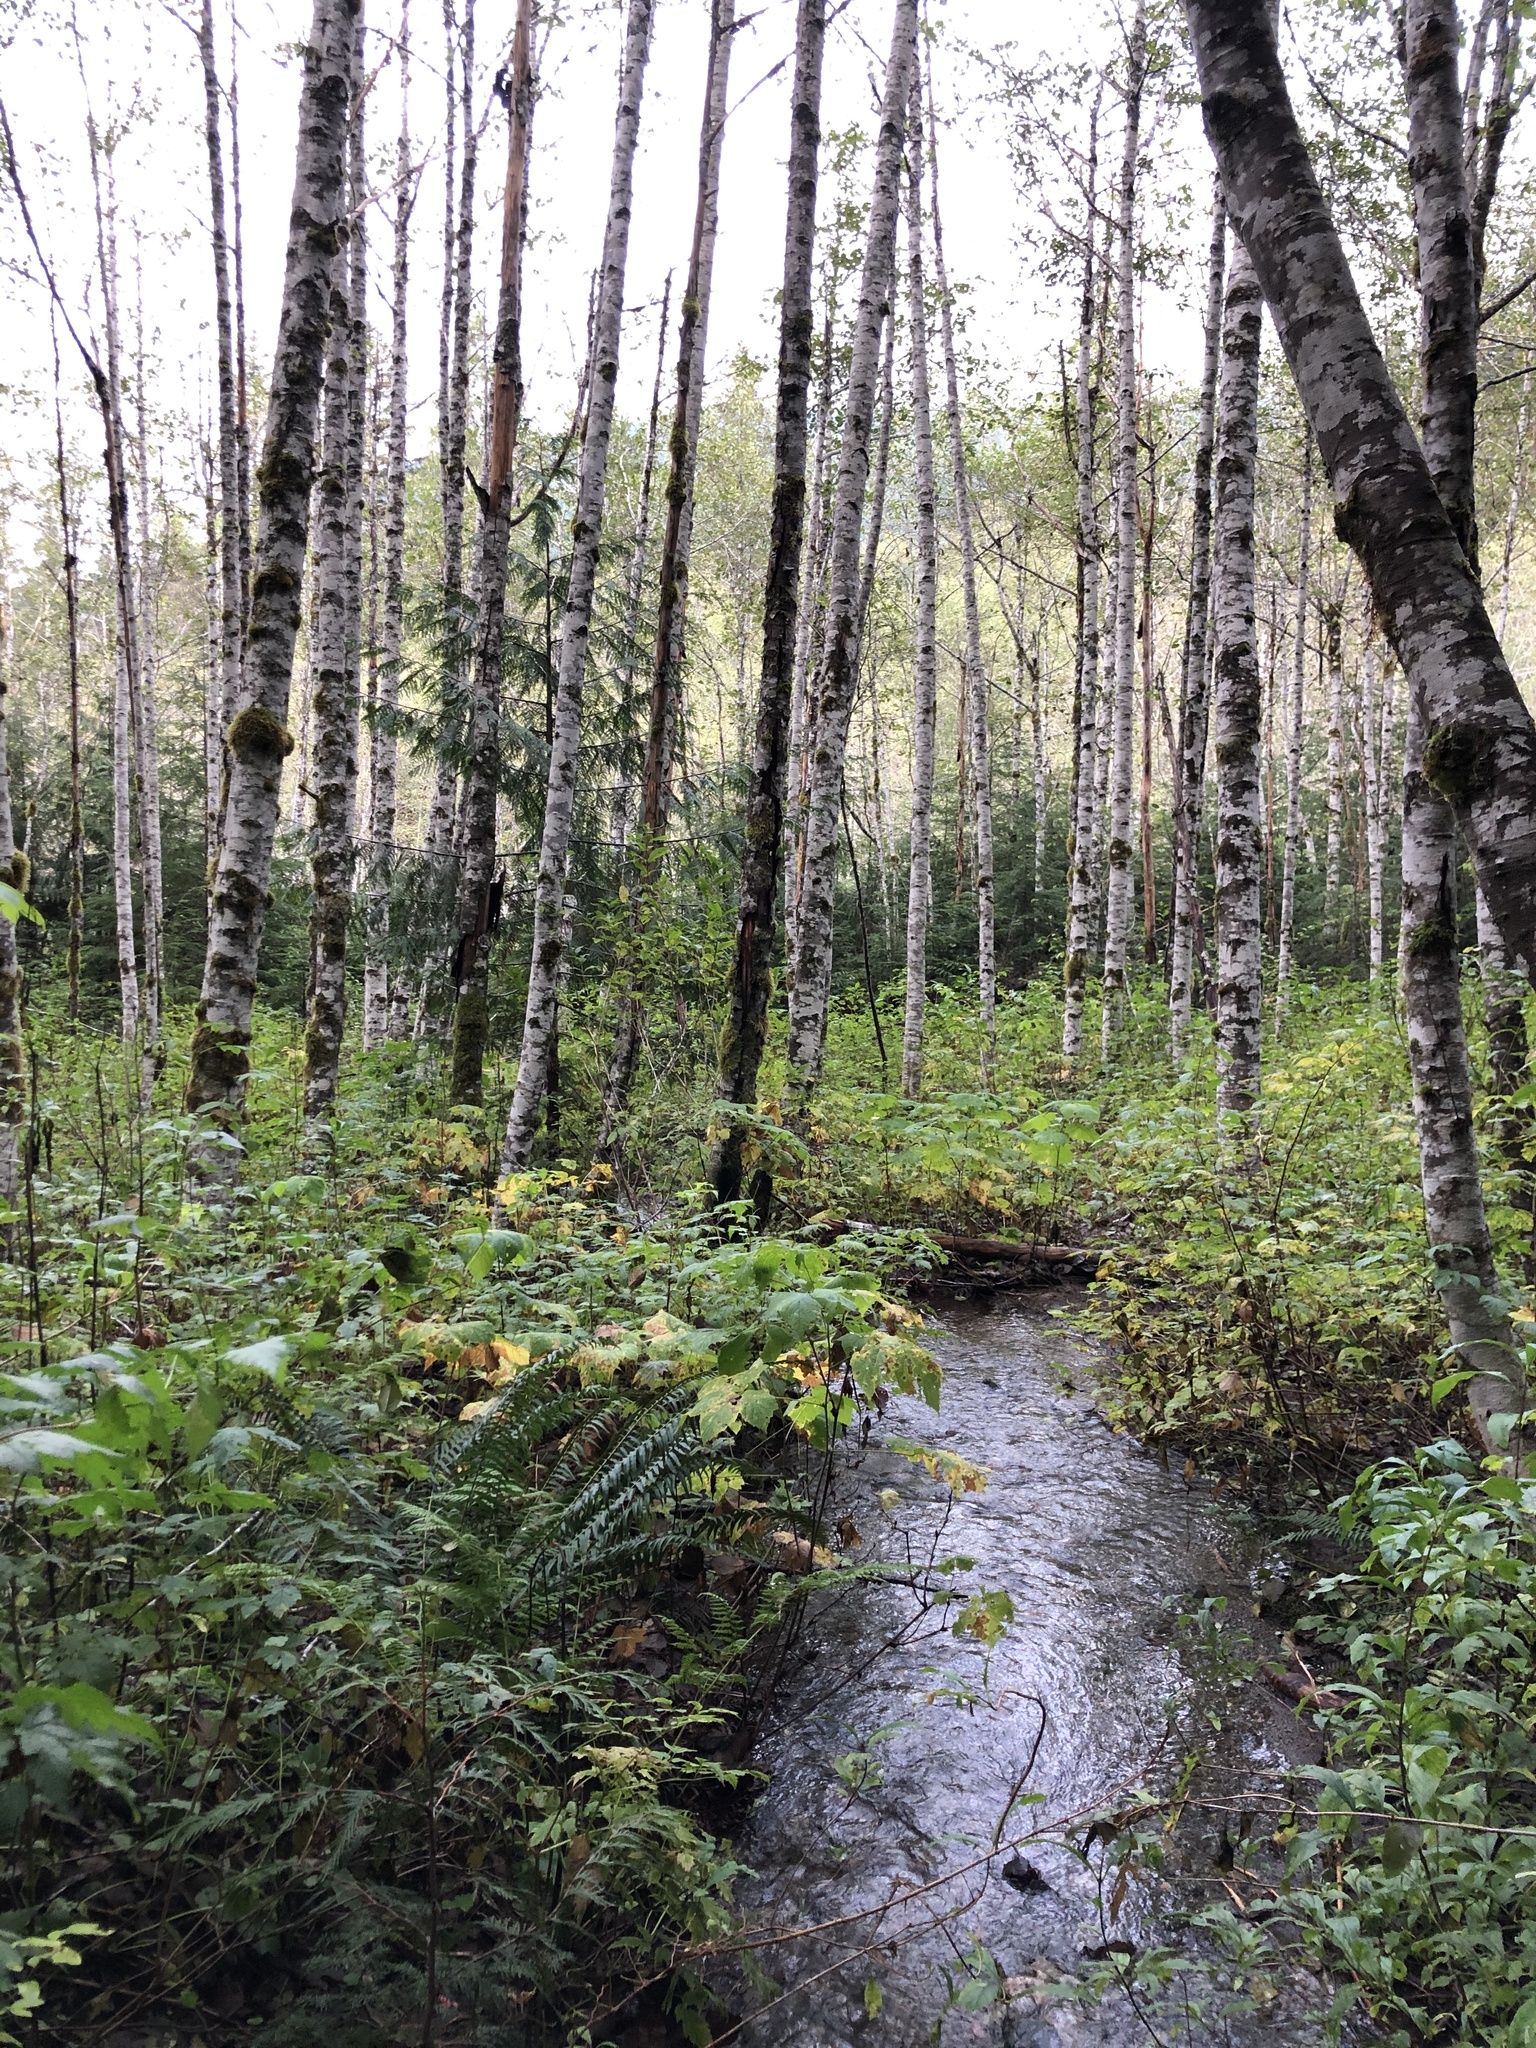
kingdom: Plantae
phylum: Tracheophyta
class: Pinopsida
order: Pinales
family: Cupressaceae
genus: Thuja
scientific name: Thuja plicata
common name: Western red-cedar
